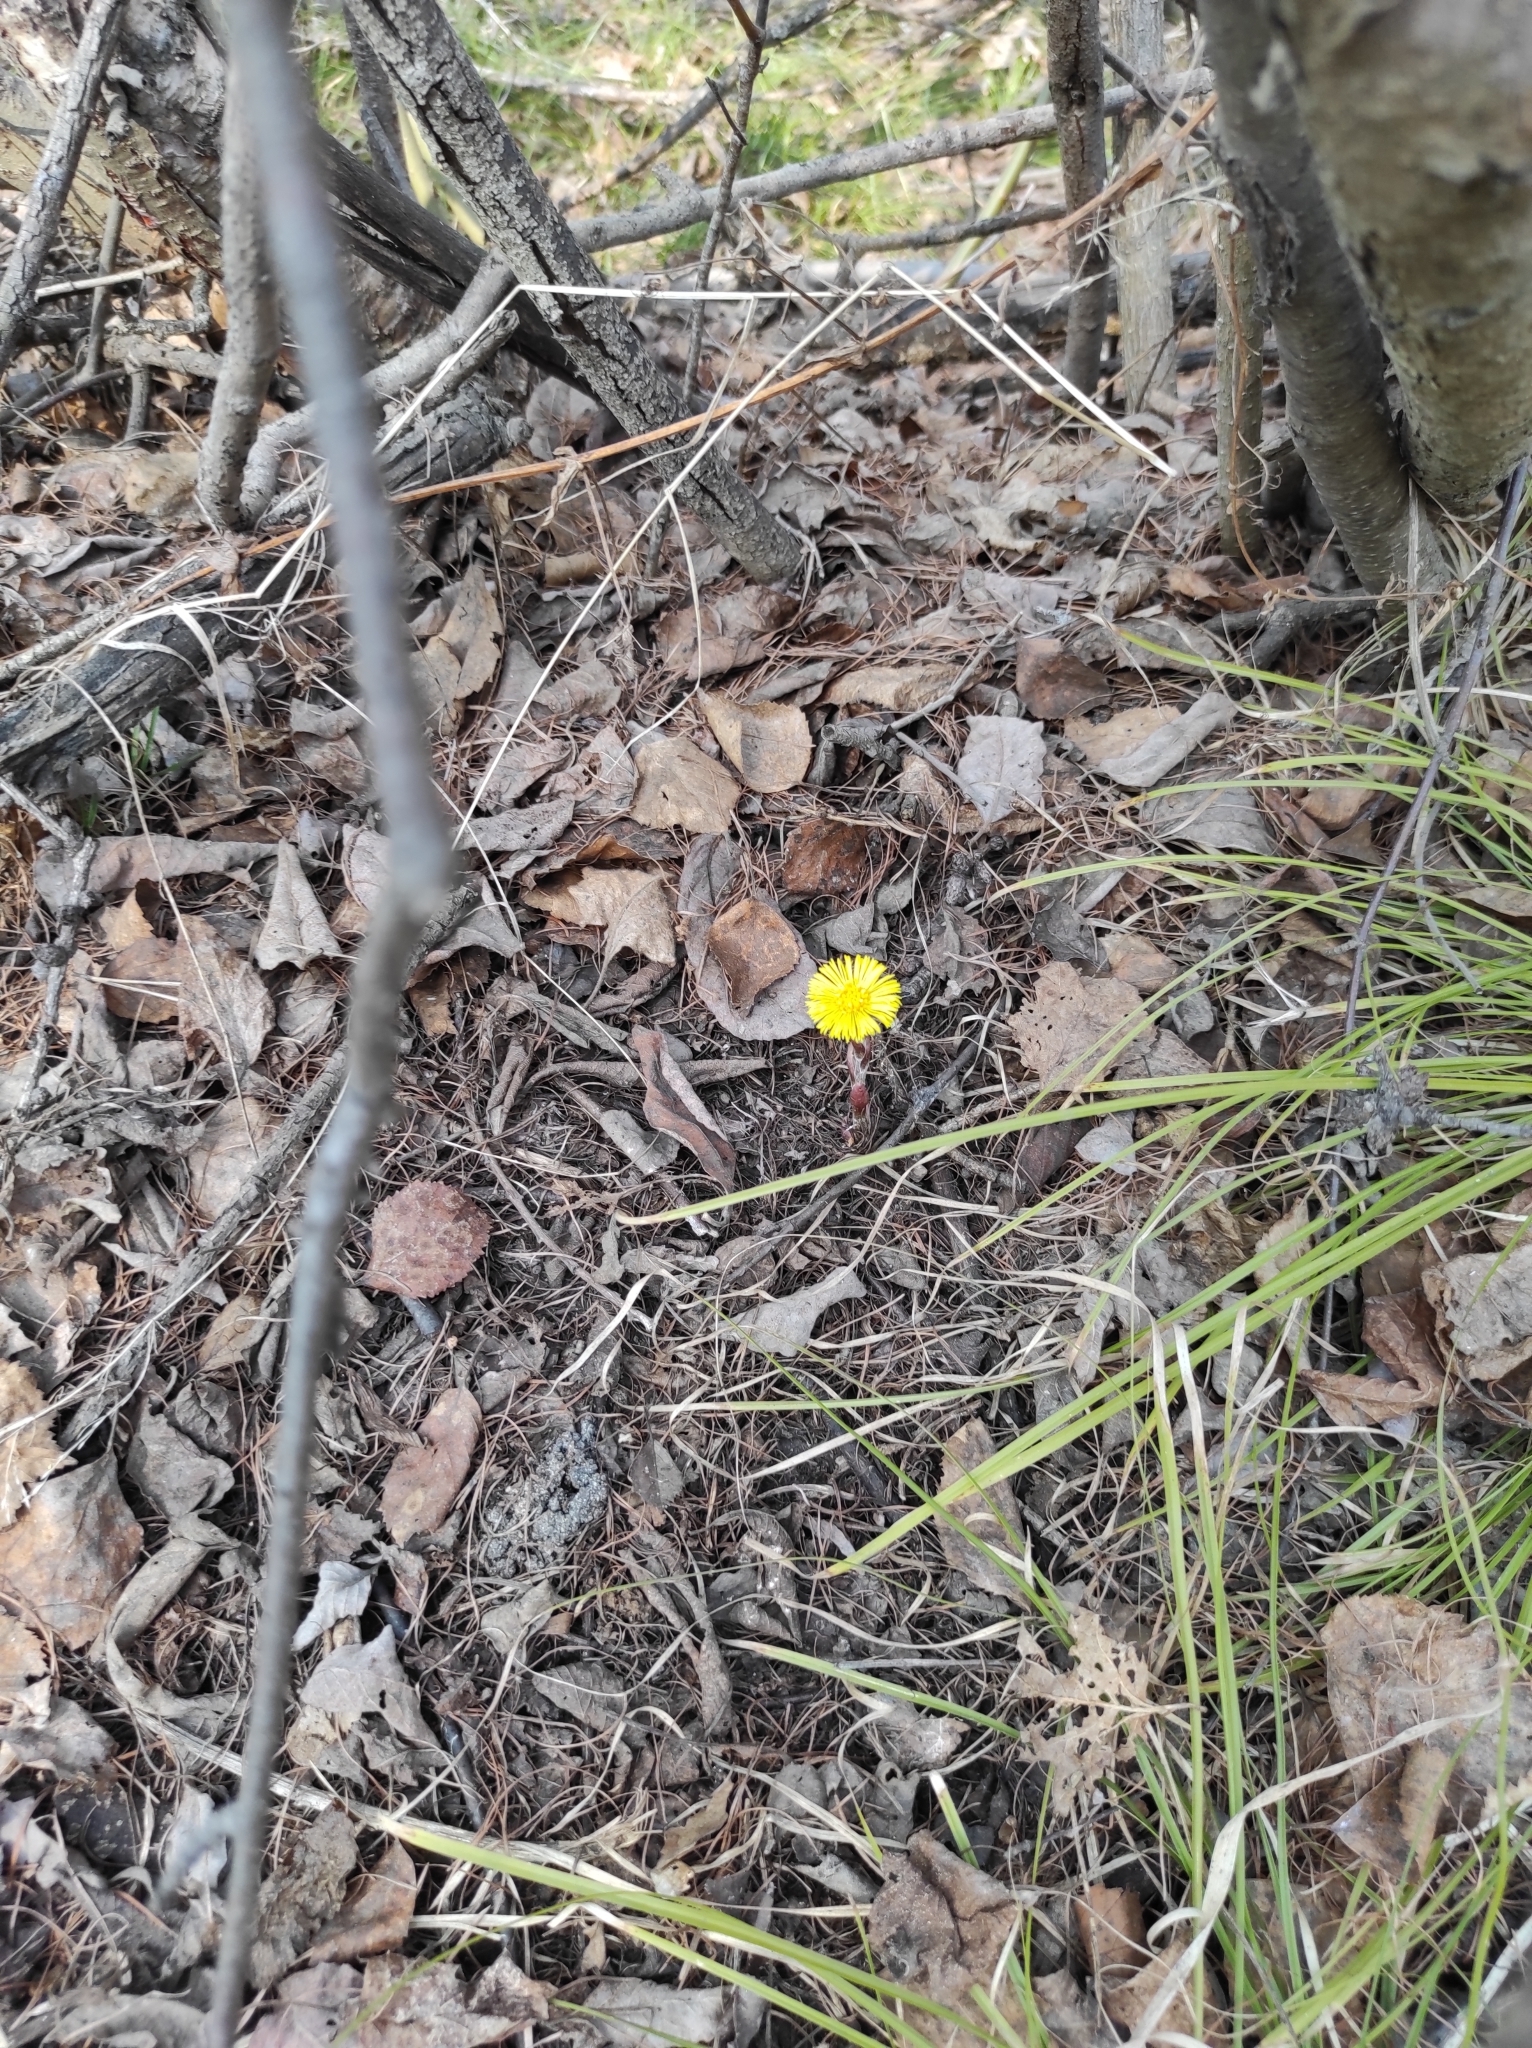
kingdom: Plantae
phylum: Tracheophyta
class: Magnoliopsida
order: Asterales
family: Asteraceae
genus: Tussilago
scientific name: Tussilago farfara
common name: Coltsfoot
